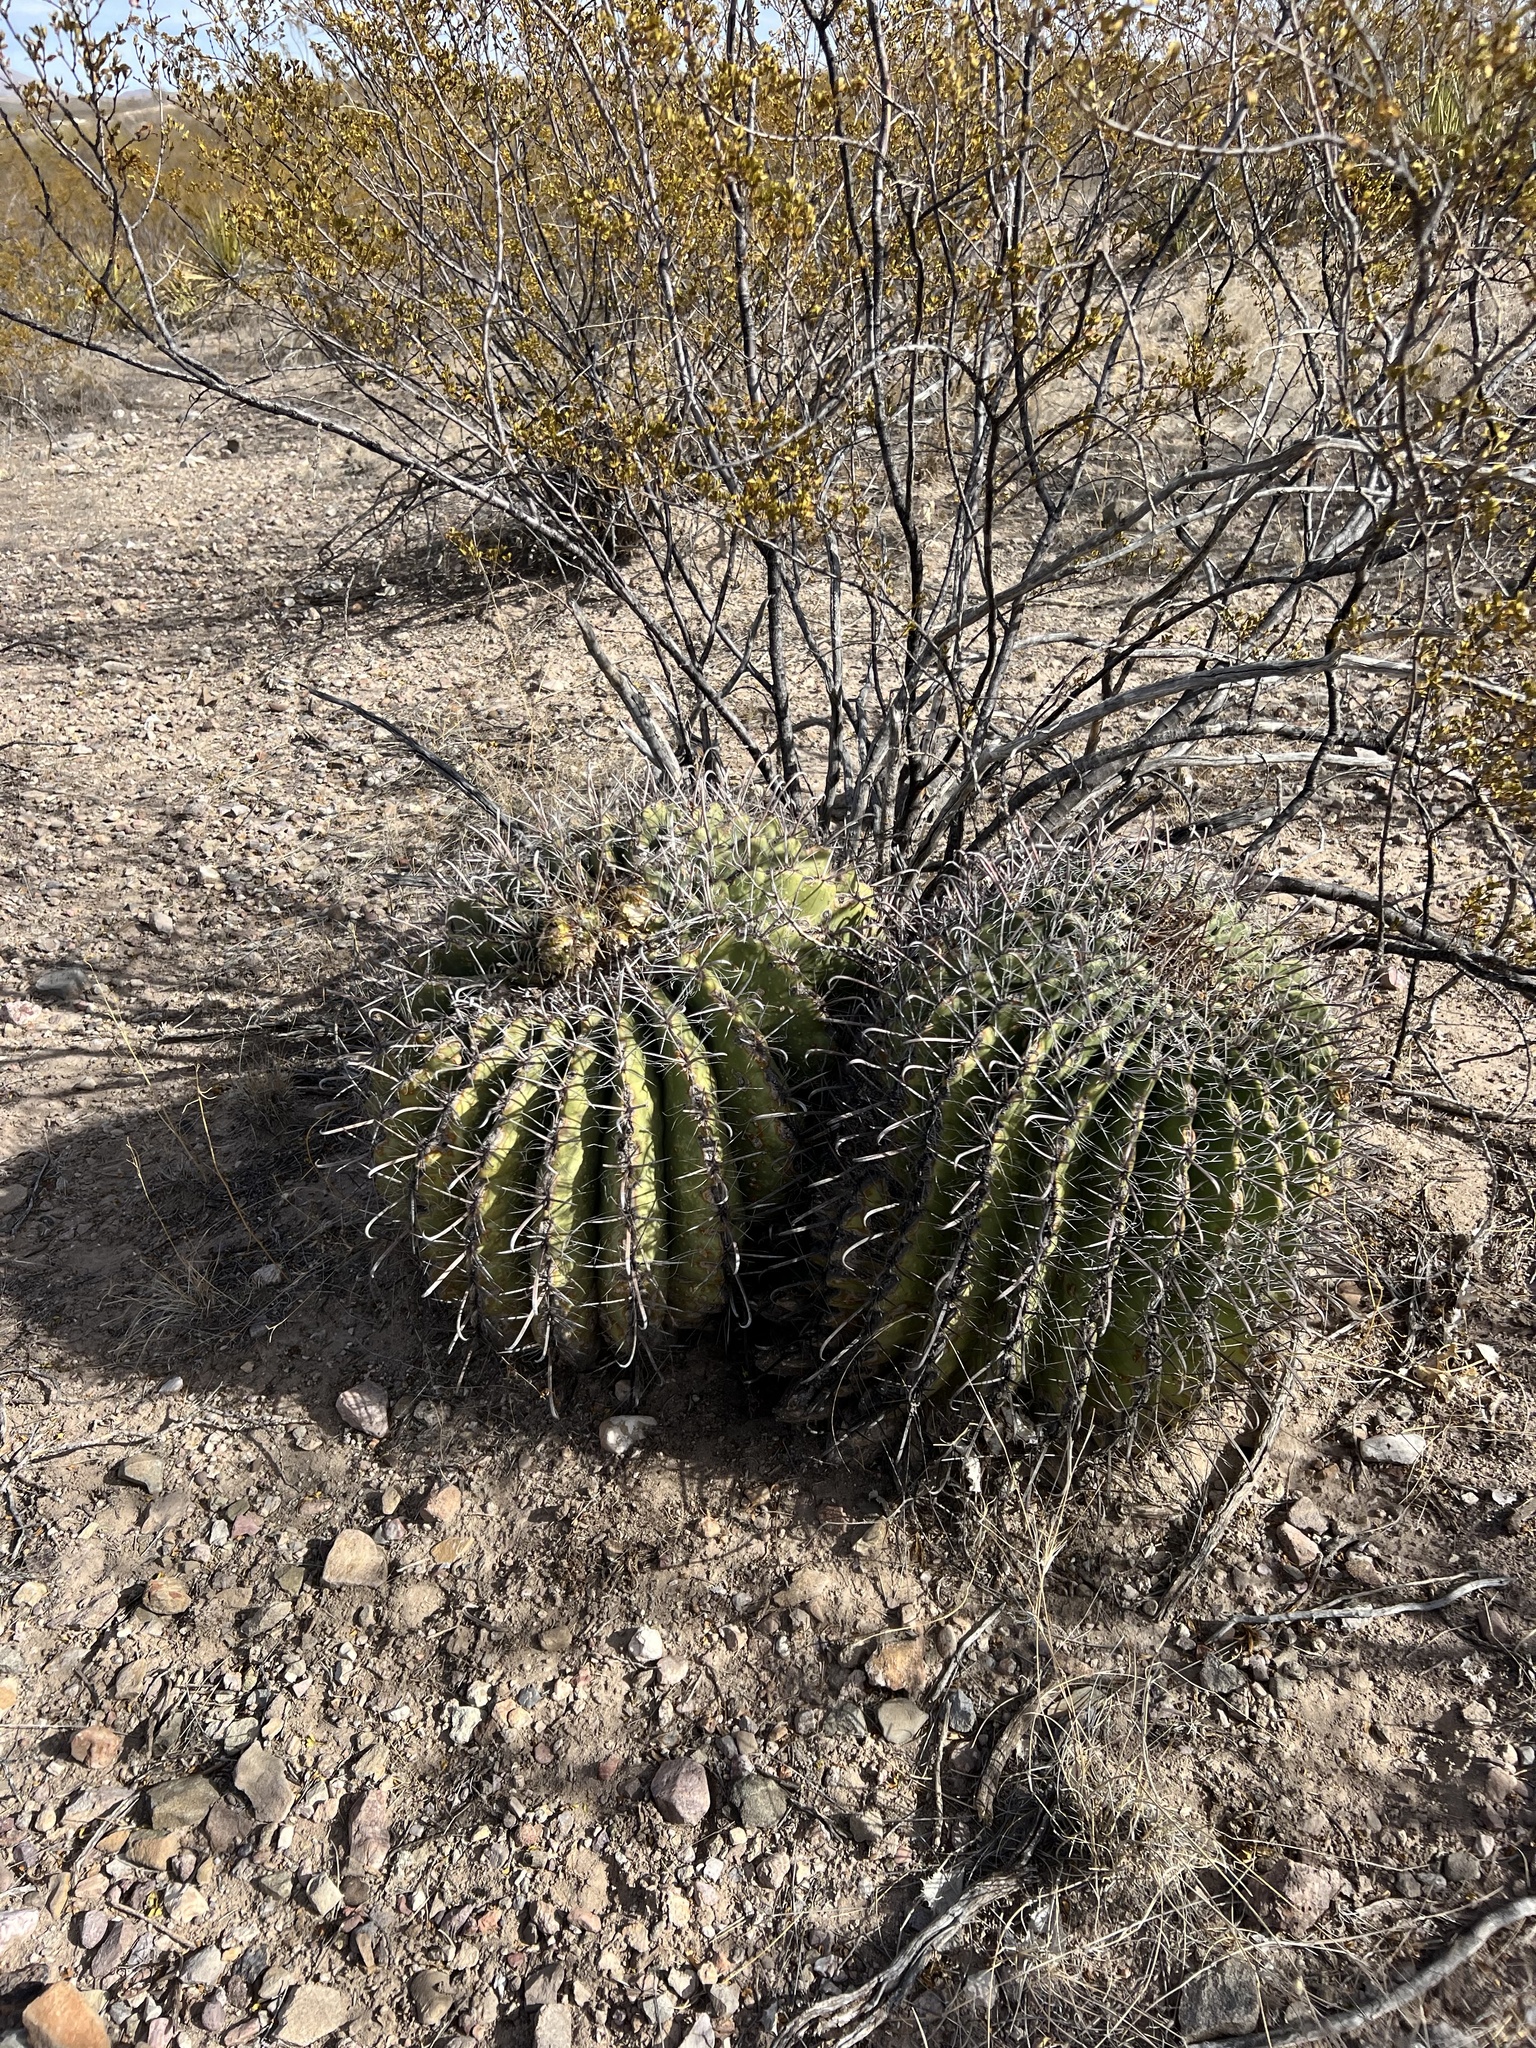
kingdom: Plantae
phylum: Tracheophyta
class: Magnoliopsida
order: Caryophyllales
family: Cactaceae
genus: Ferocactus
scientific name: Ferocactus wislizeni
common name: Candy barrel cactus
